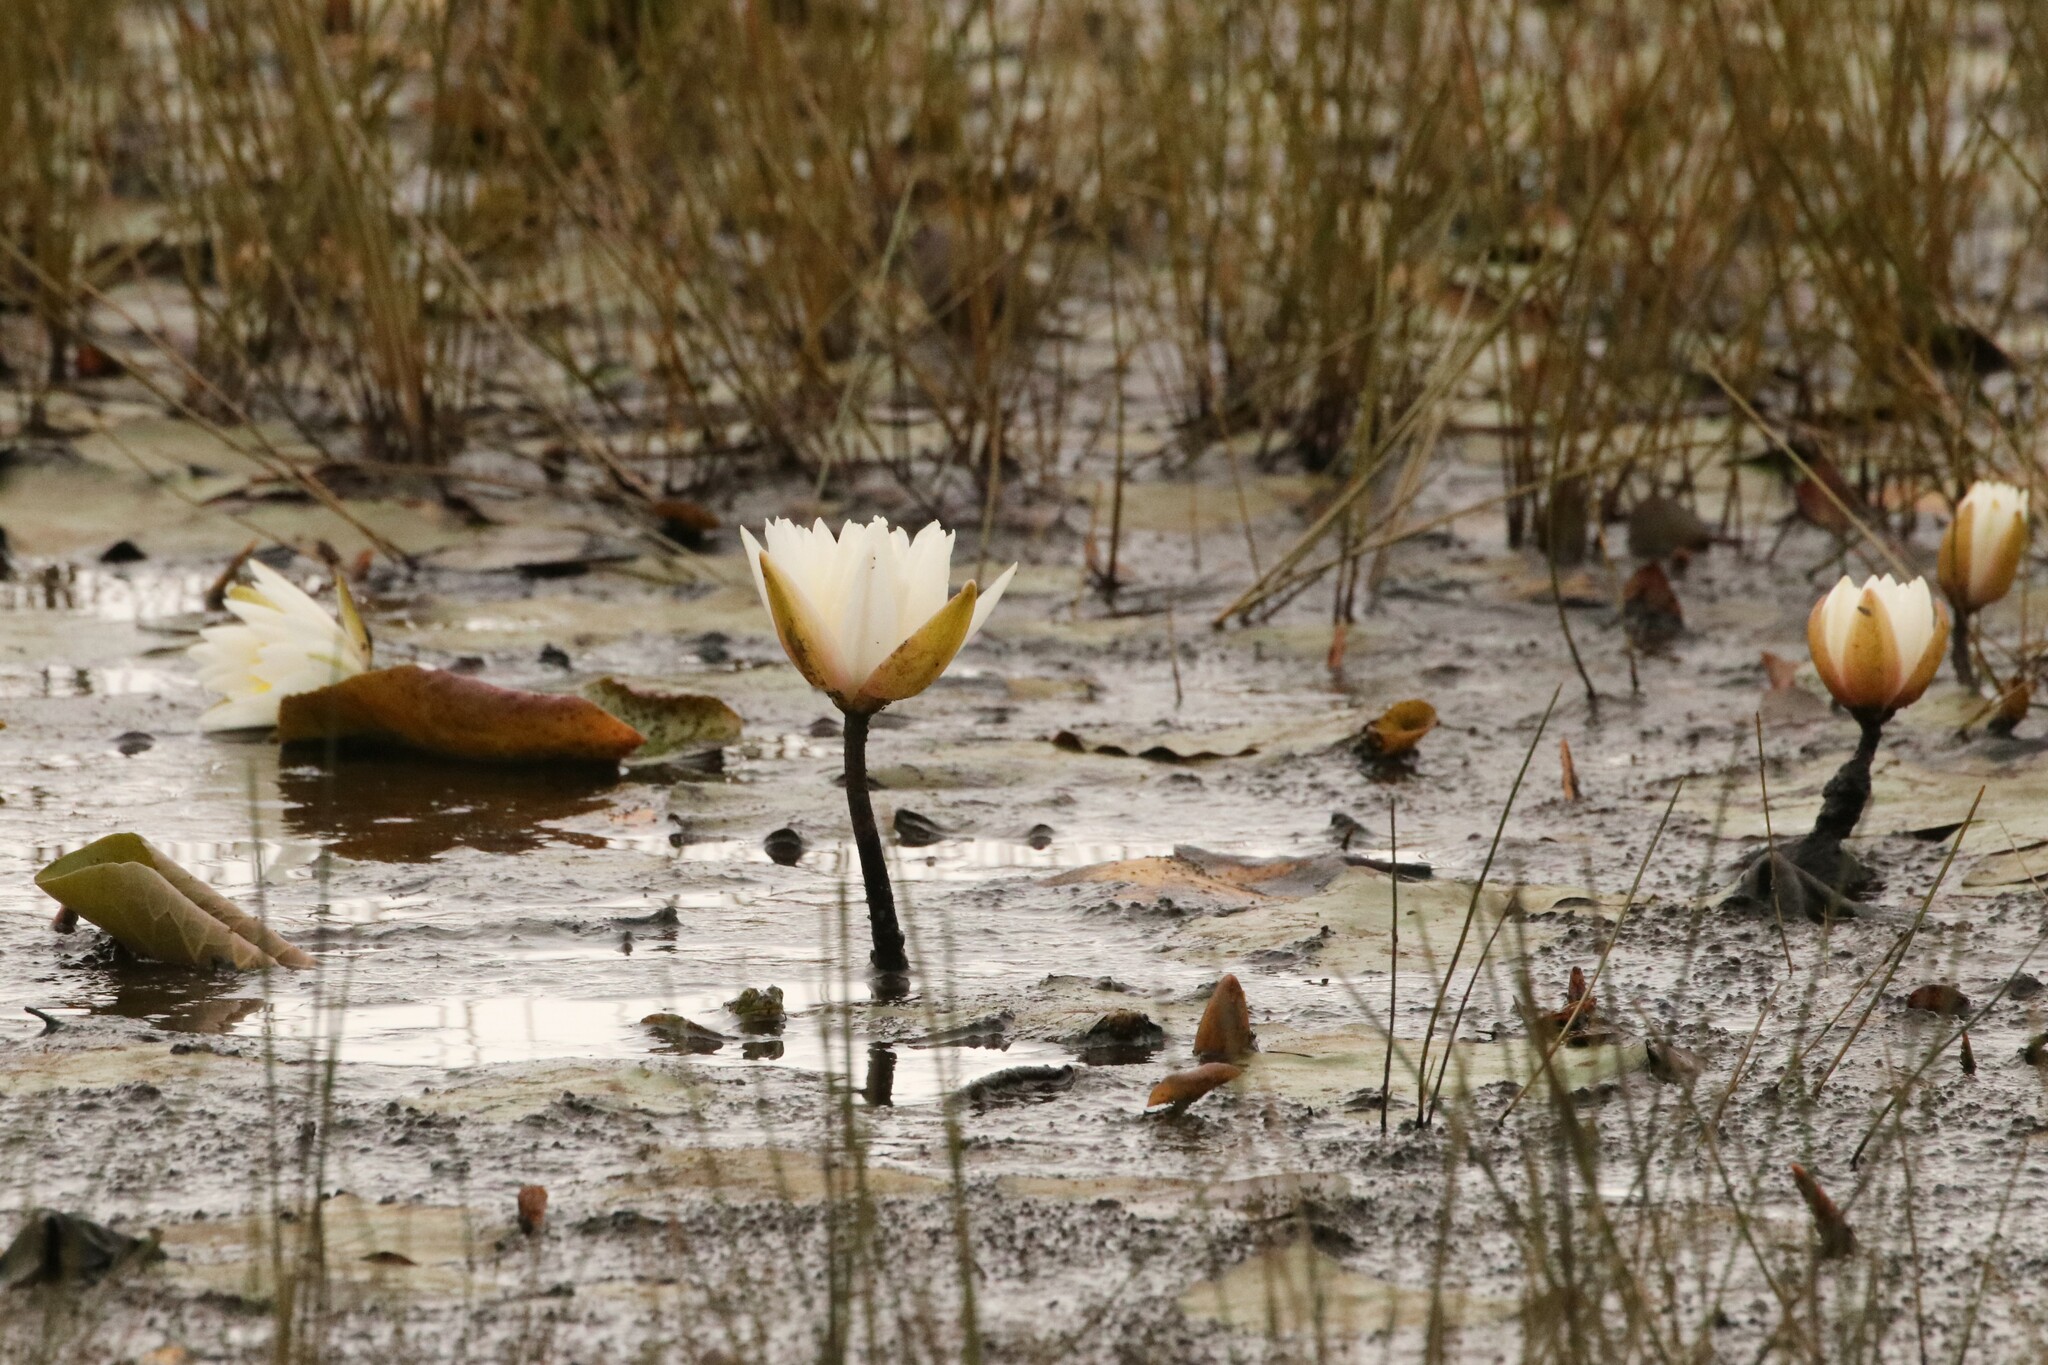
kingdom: Plantae
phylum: Tracheophyta
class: Magnoliopsida
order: Nymphaeales
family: Nymphaeaceae
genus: Nymphaea
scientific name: Nymphaea odorata
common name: Fragrant water-lily
